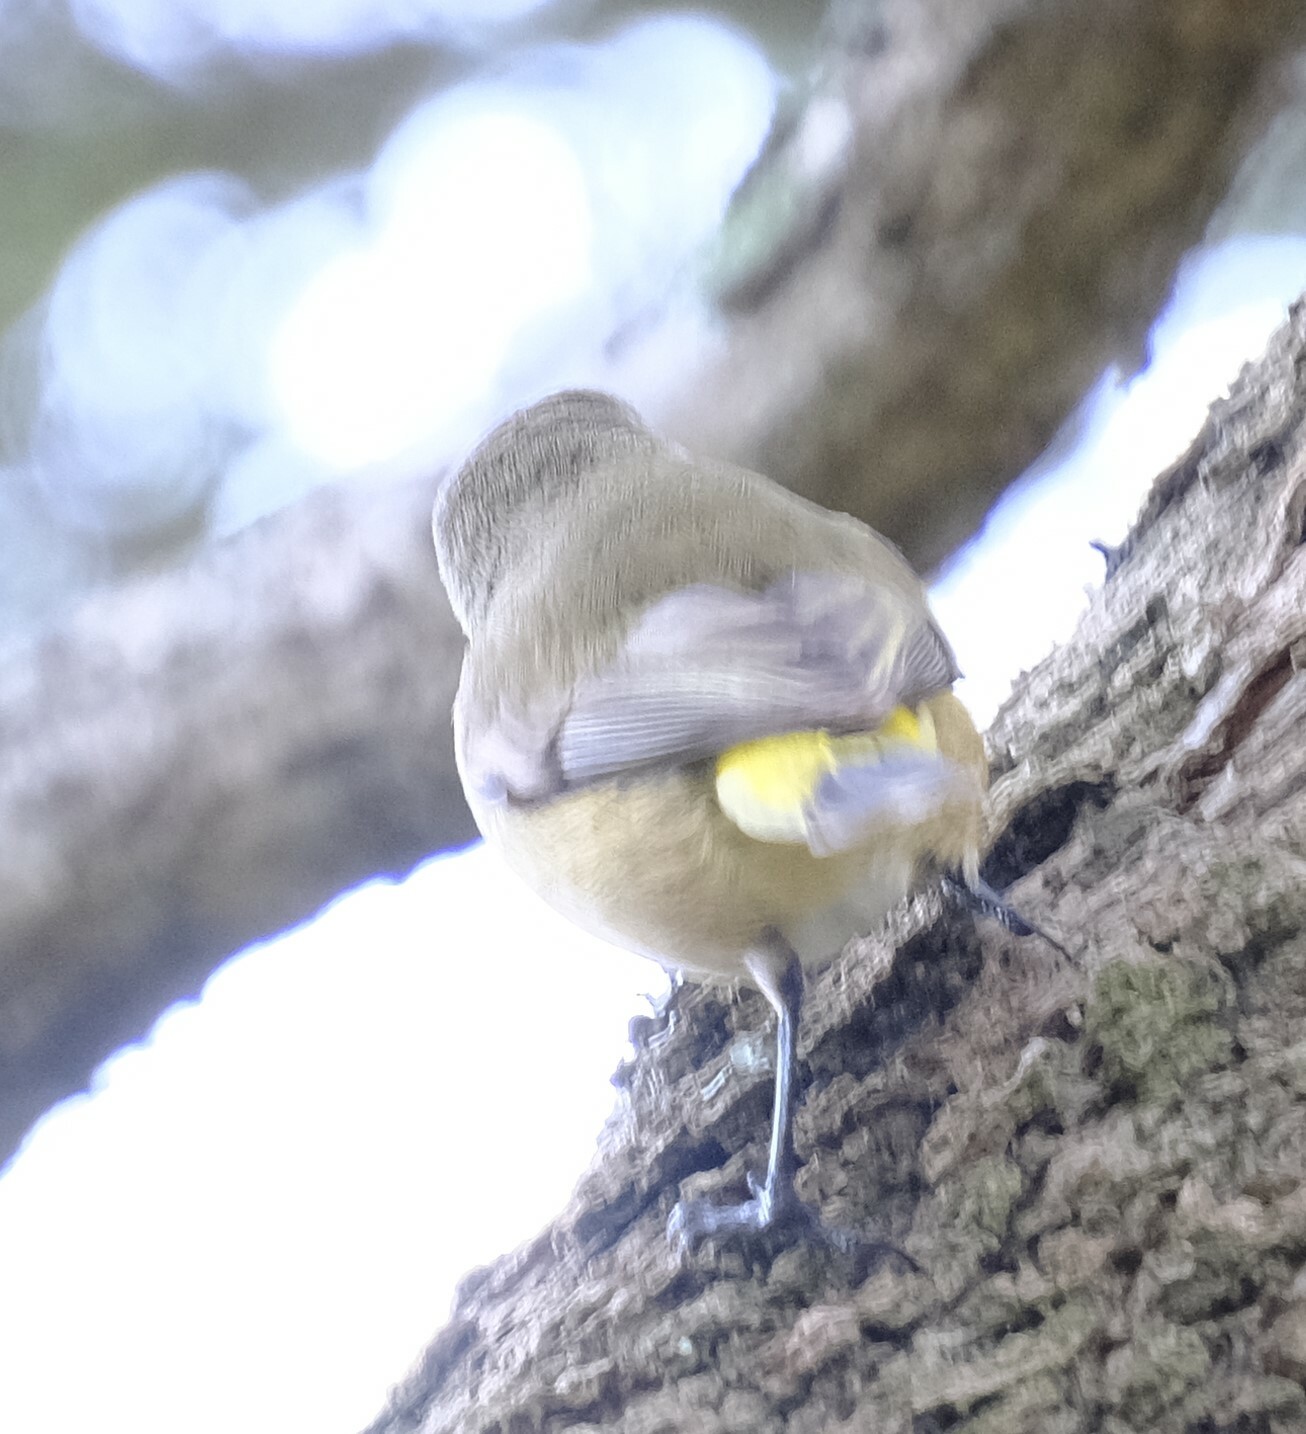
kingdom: Animalia
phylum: Chordata
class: Aves
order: Passeriformes
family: Acanthizidae
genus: Acanthiza
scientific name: Acanthiza chrysorrhoa
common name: Yellow-rumped thornbill
